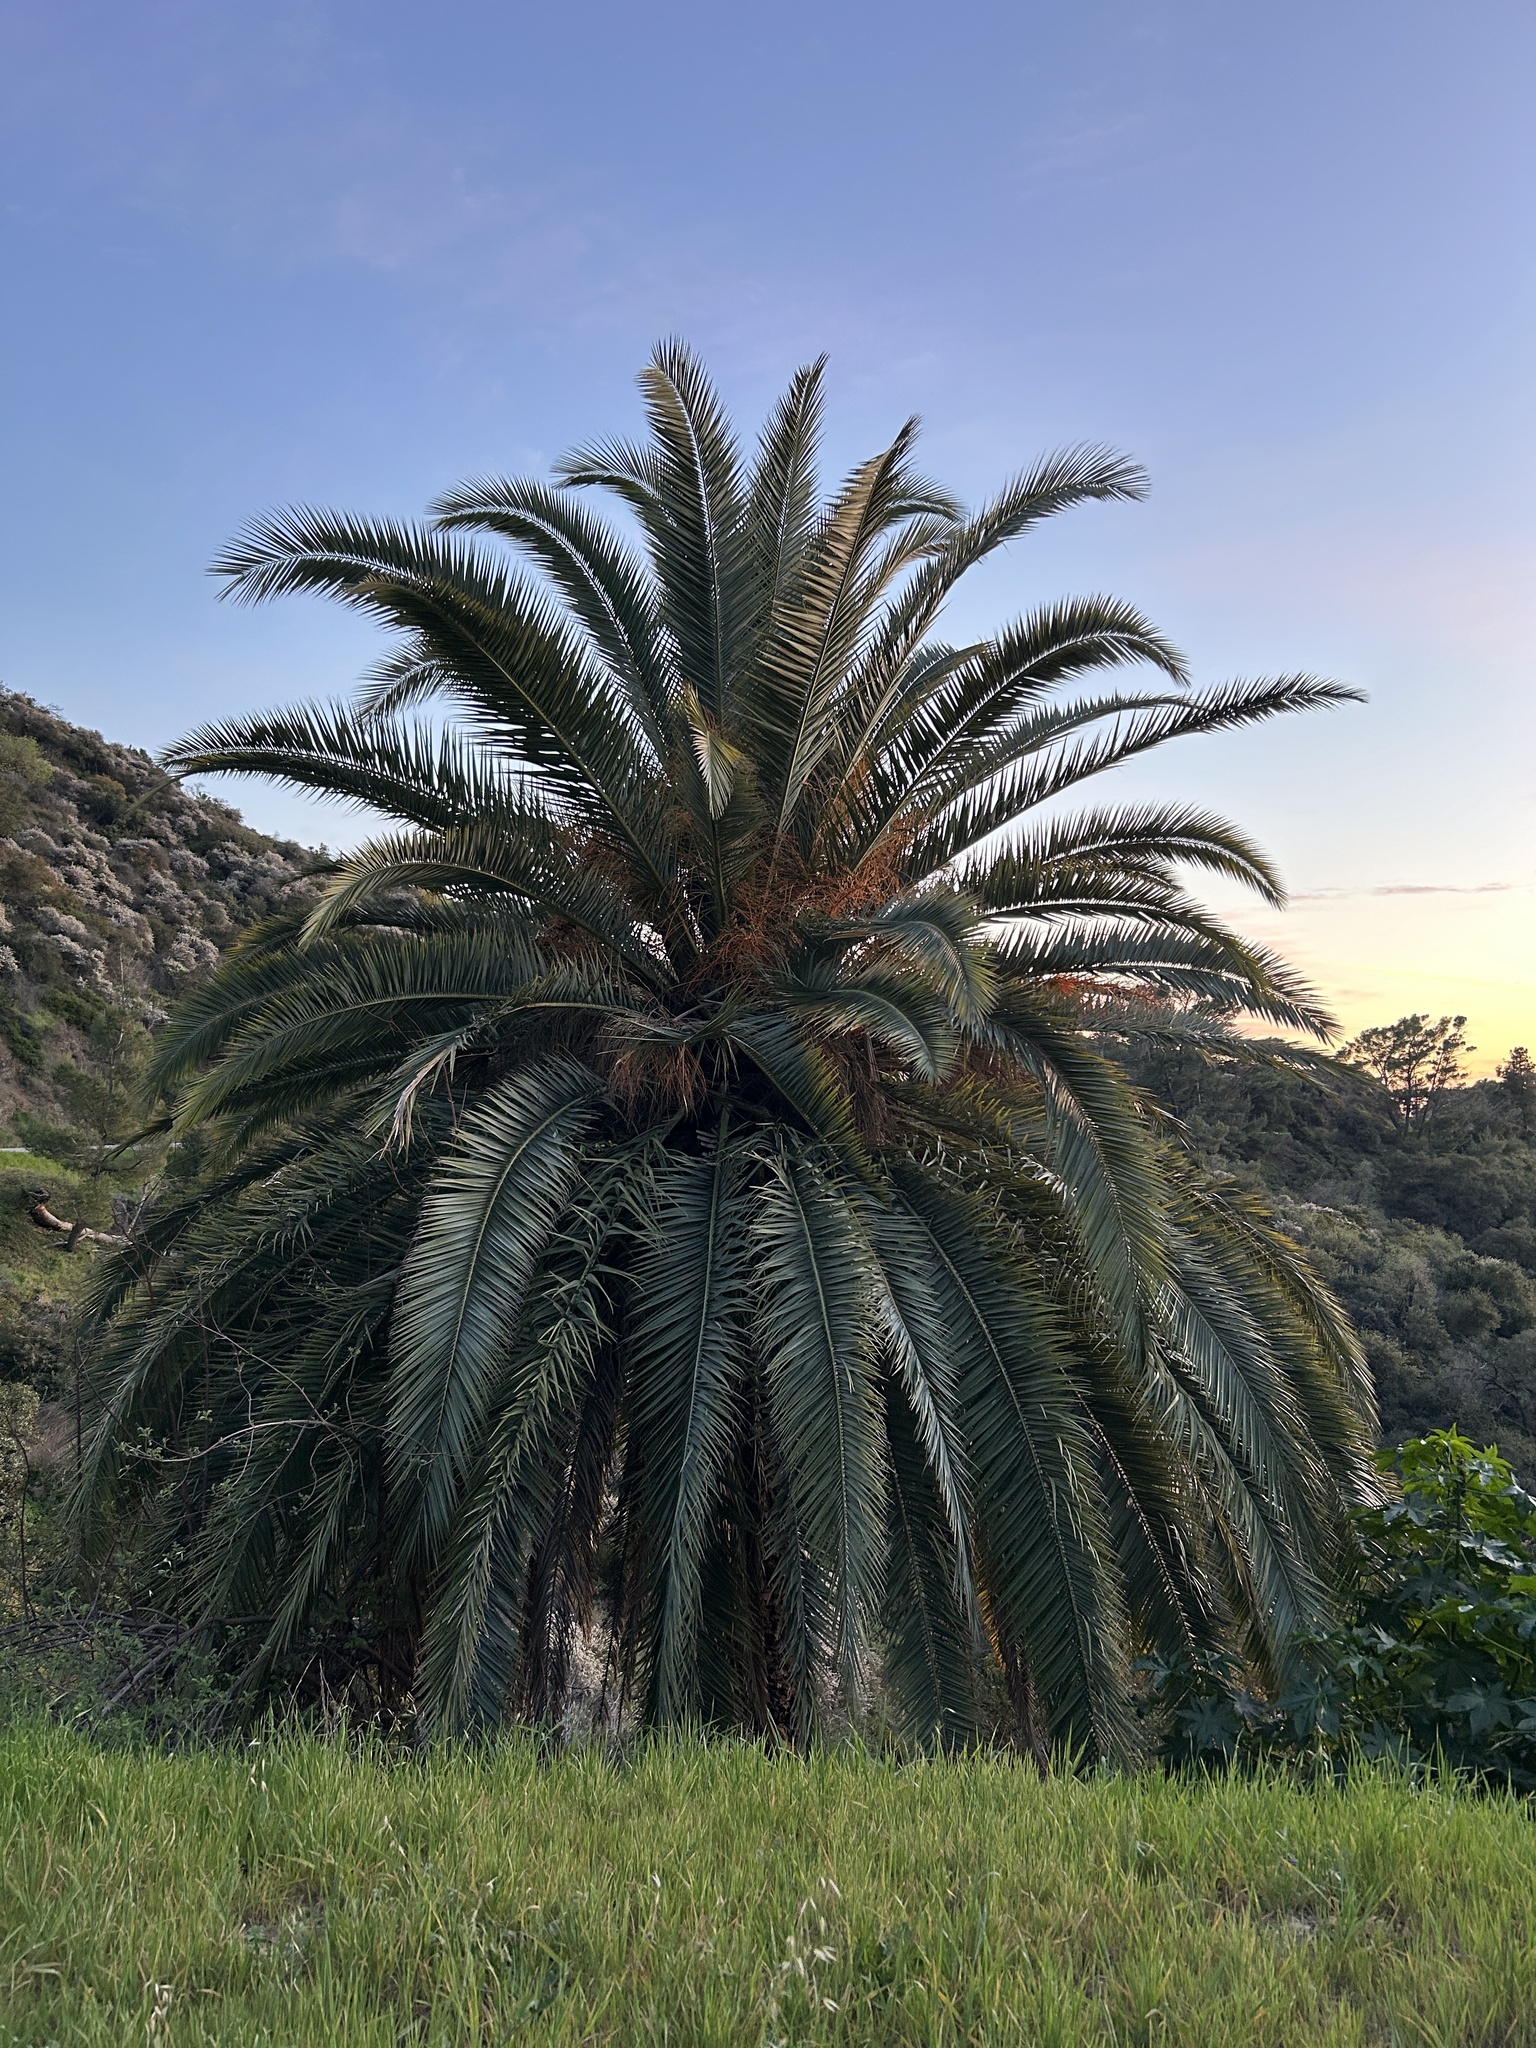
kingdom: Plantae
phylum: Tracheophyta
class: Liliopsida
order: Arecales
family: Arecaceae
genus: Phoenix
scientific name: Phoenix canariensis
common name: Canary island date palm
